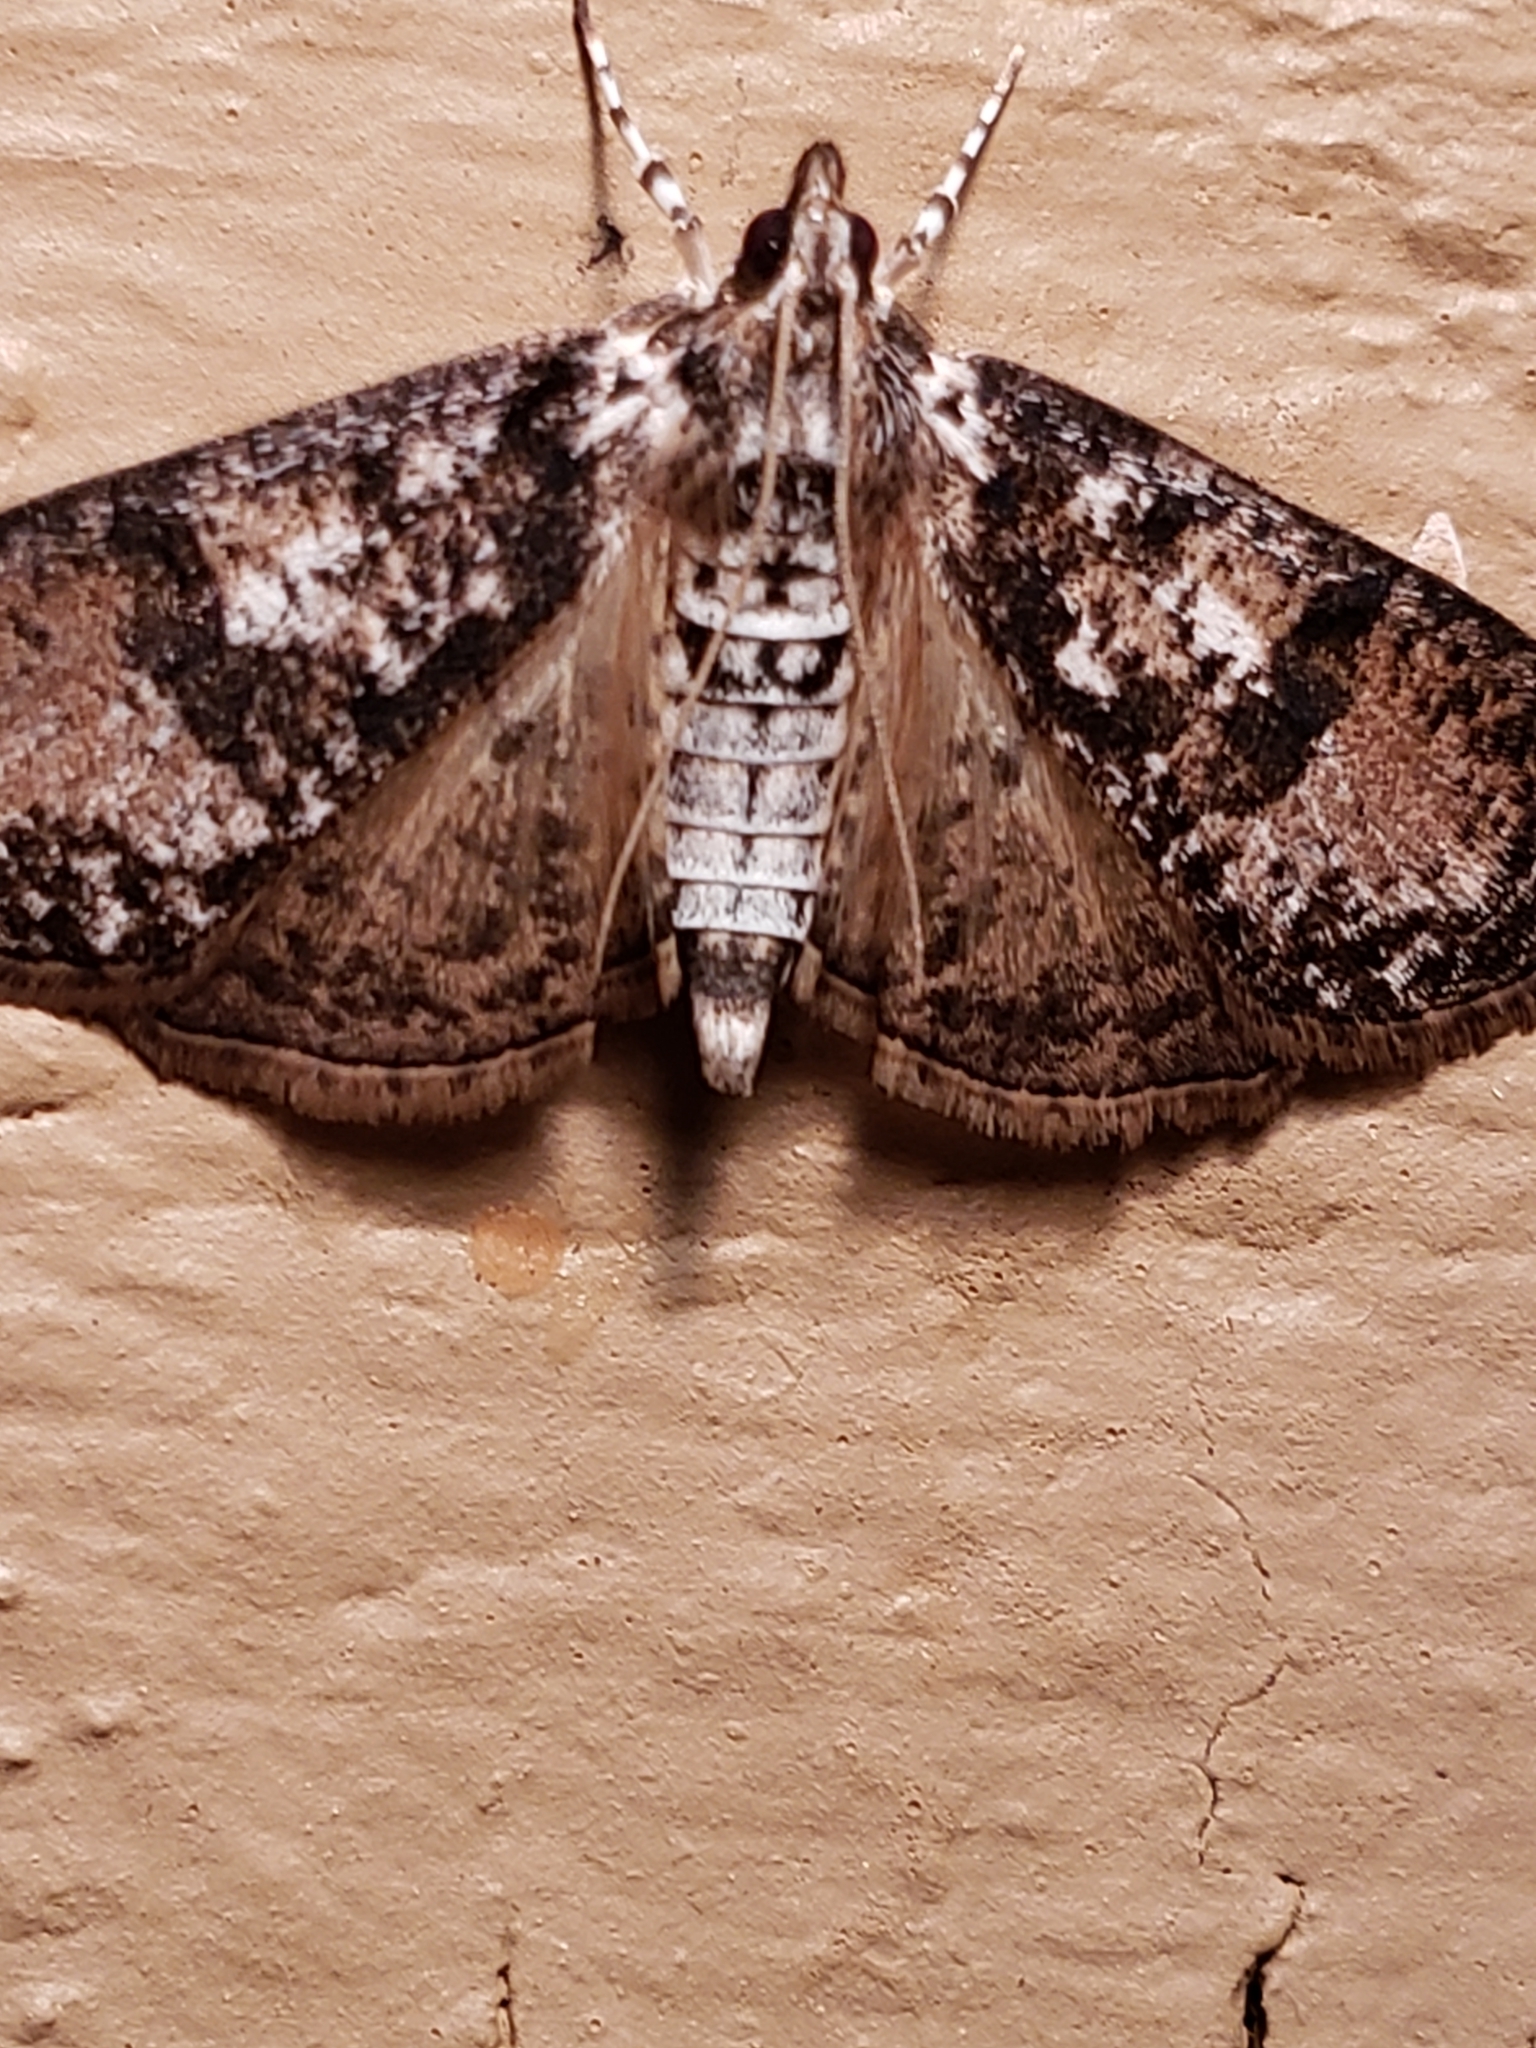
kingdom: Animalia
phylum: Arthropoda
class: Insecta
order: Lepidoptera
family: Crambidae
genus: Palpita
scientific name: Palpita magniferalis
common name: Splendid palpita moth
